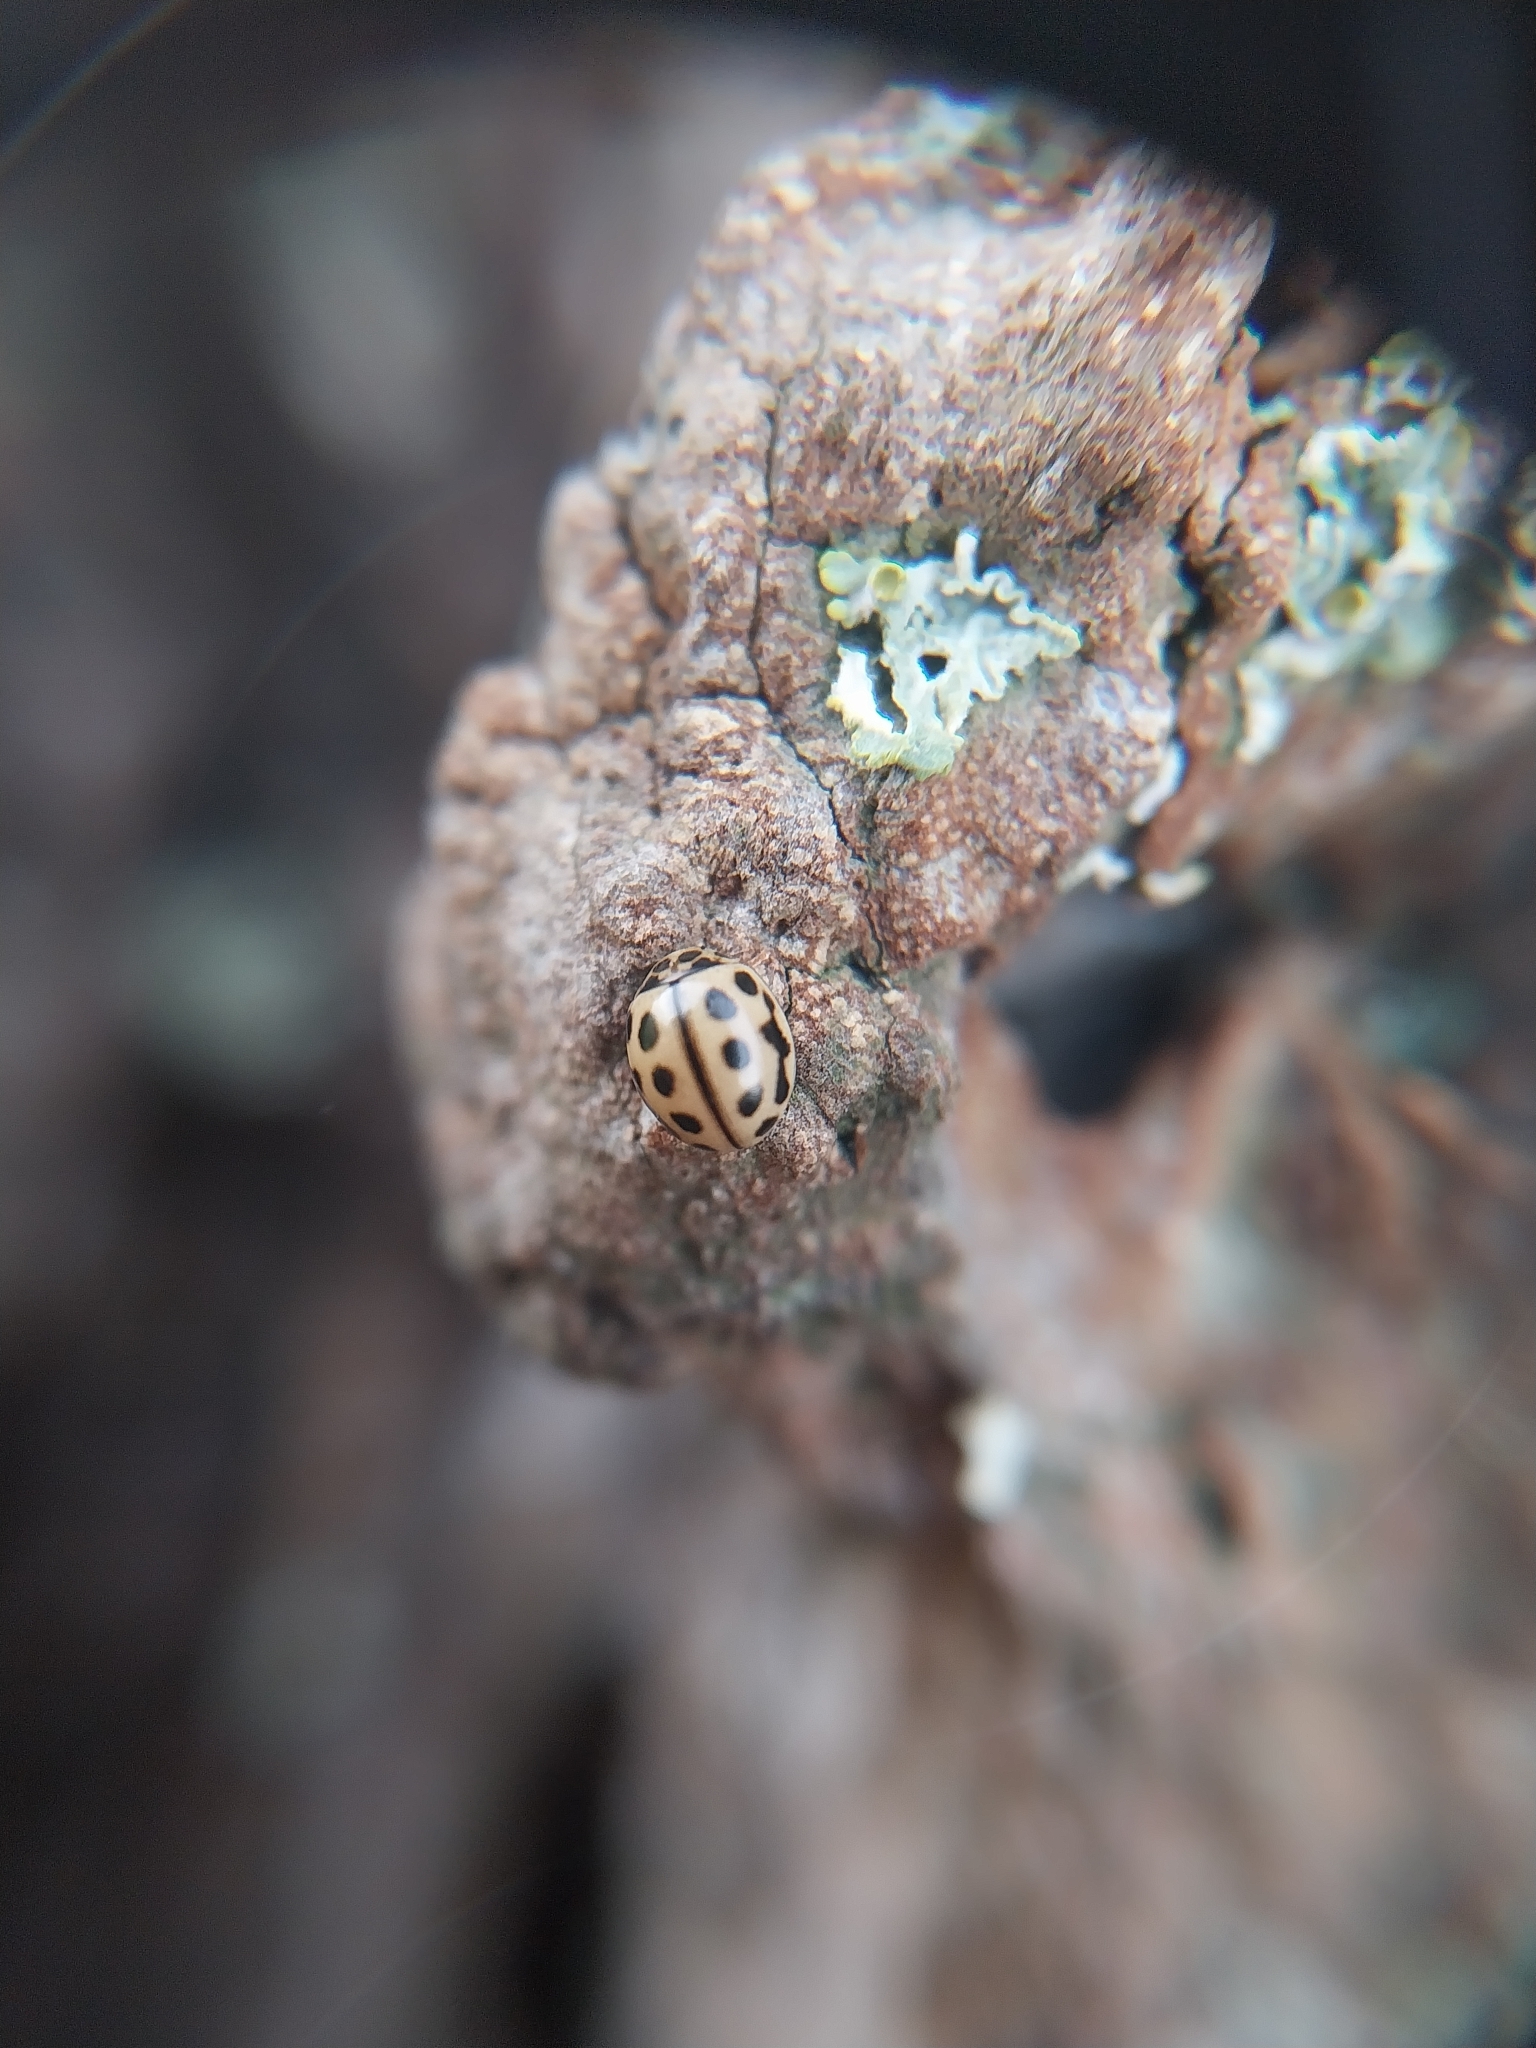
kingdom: Animalia
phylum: Arthropoda
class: Insecta
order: Coleoptera
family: Coccinellidae
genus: Tytthaspis
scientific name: Tytthaspis sedecimpunctata
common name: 16-spot ladybird
